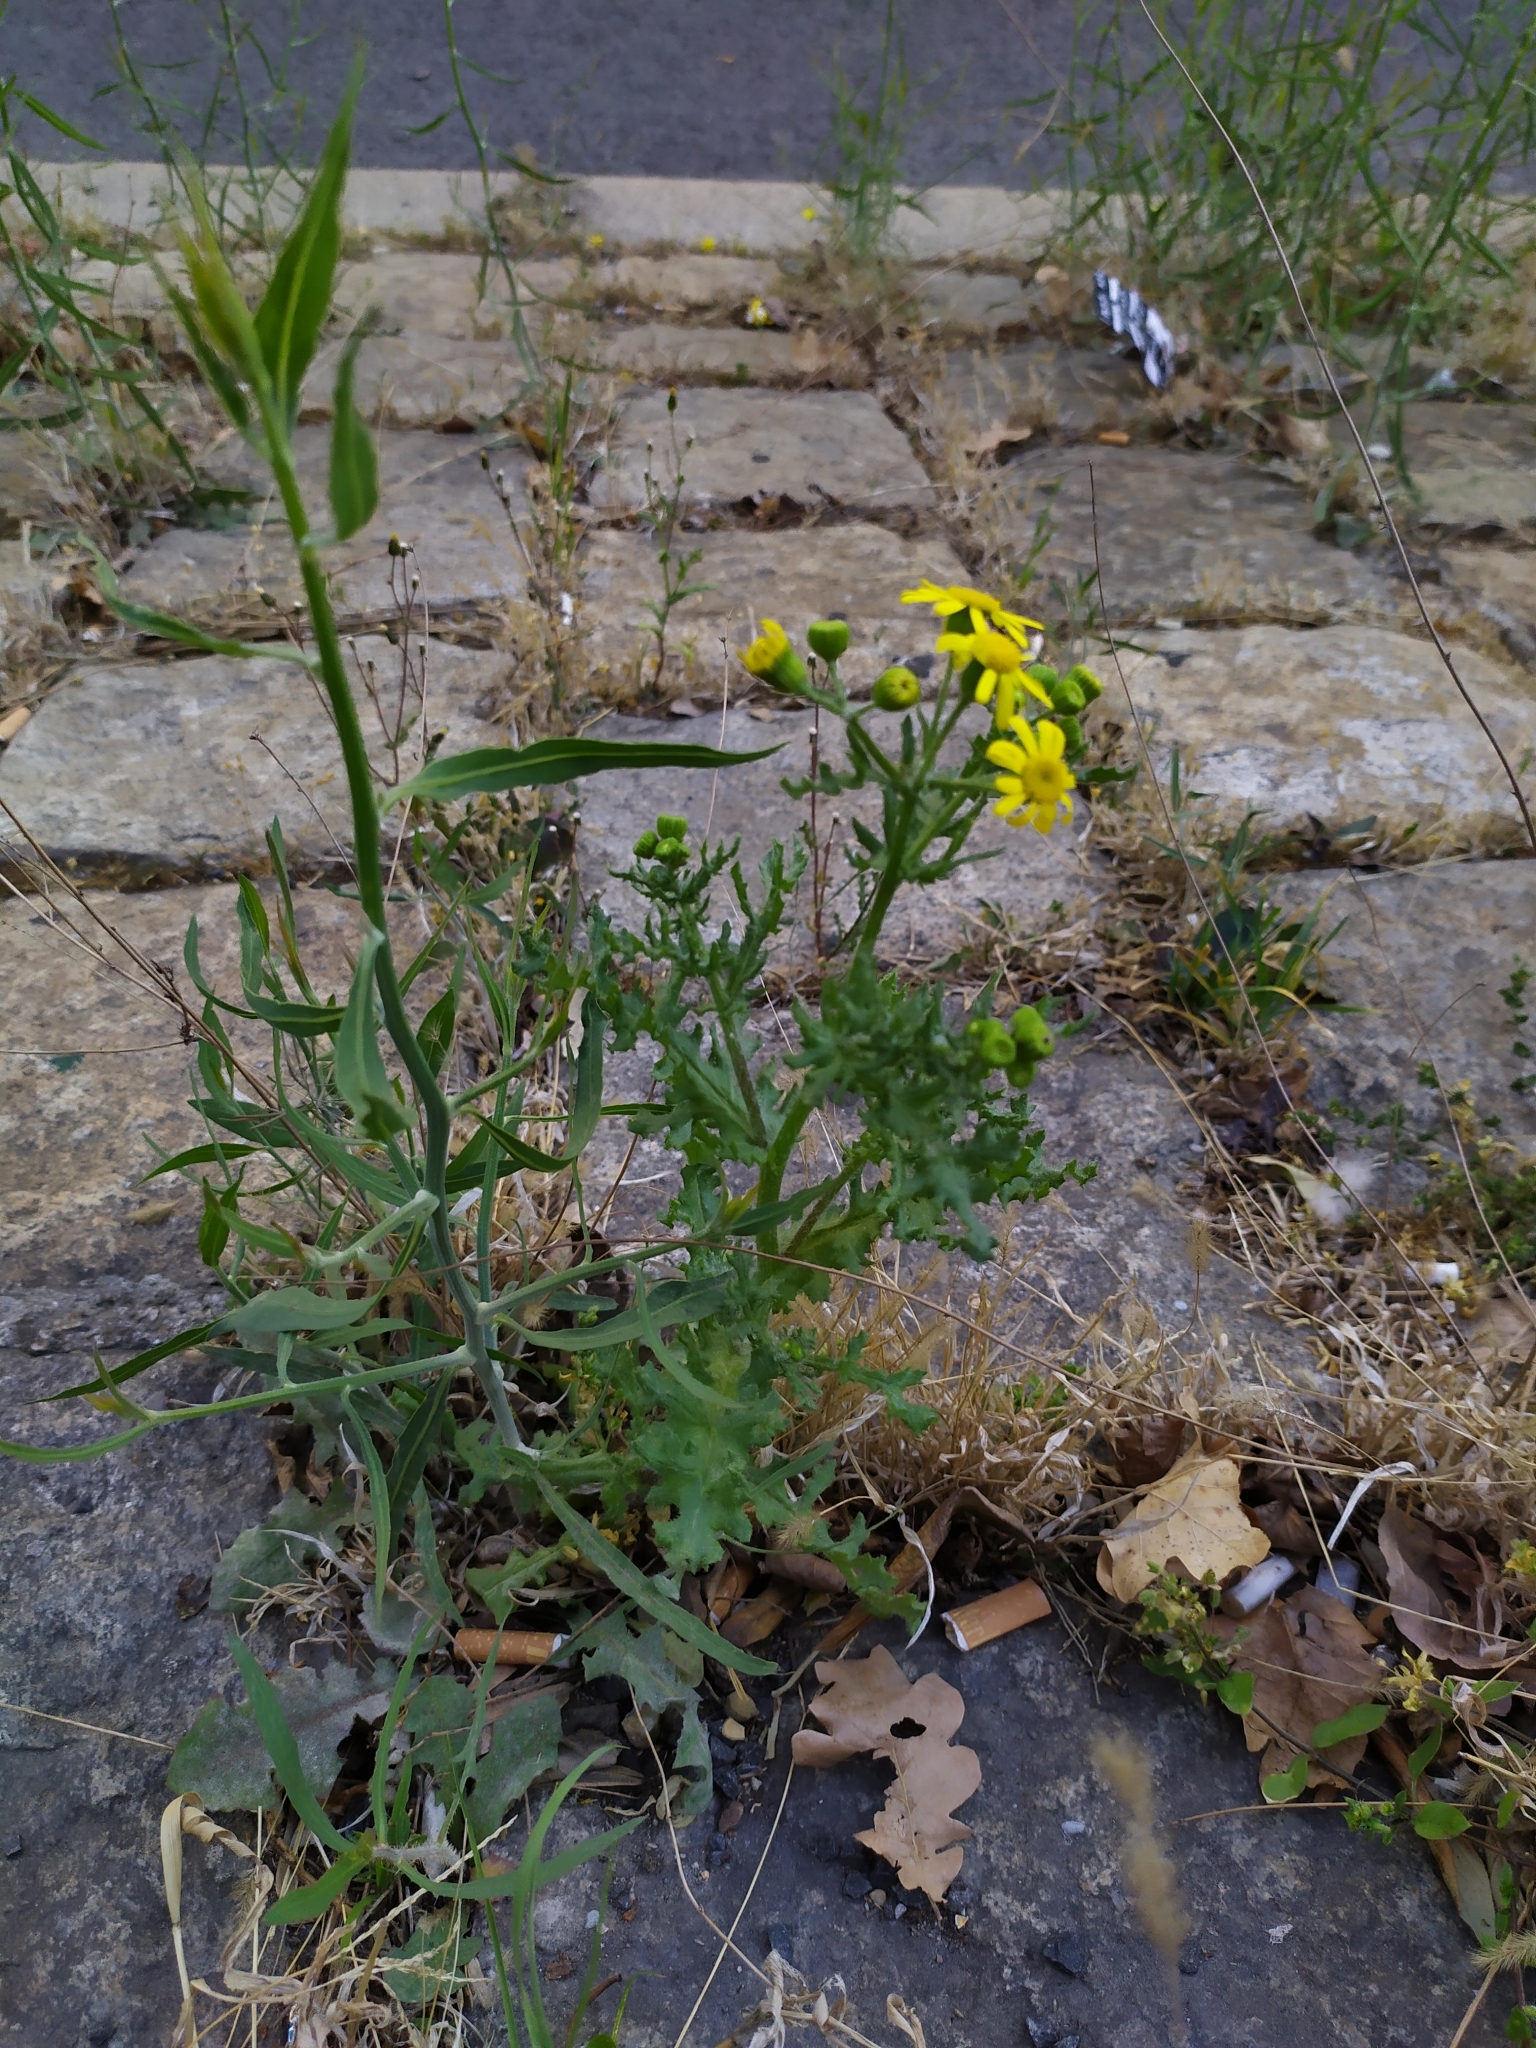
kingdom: Plantae
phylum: Tracheophyta
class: Magnoliopsida
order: Asterales
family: Asteraceae
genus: Senecio
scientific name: Senecio vernalis
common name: Eastern groundsel
